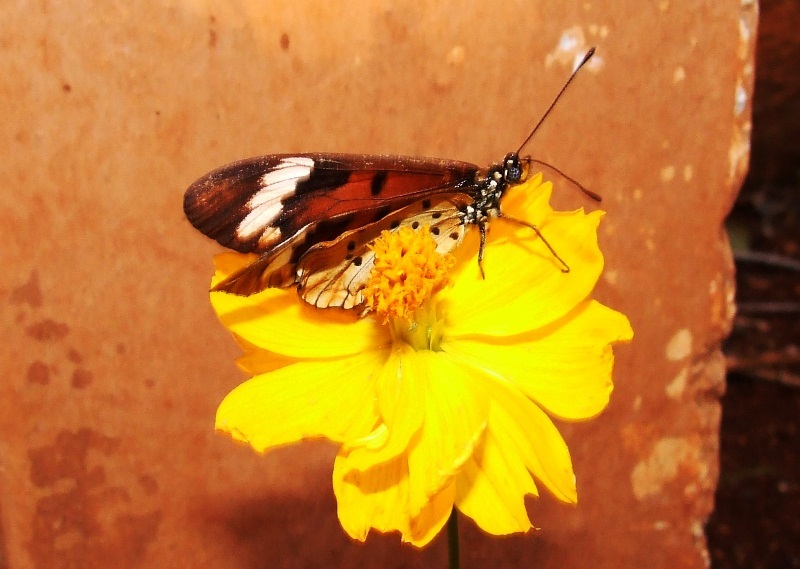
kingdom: Animalia
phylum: Arthropoda
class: Insecta
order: Lepidoptera
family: Nymphalidae
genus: Acraea
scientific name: Acraea Telchinia encedon
